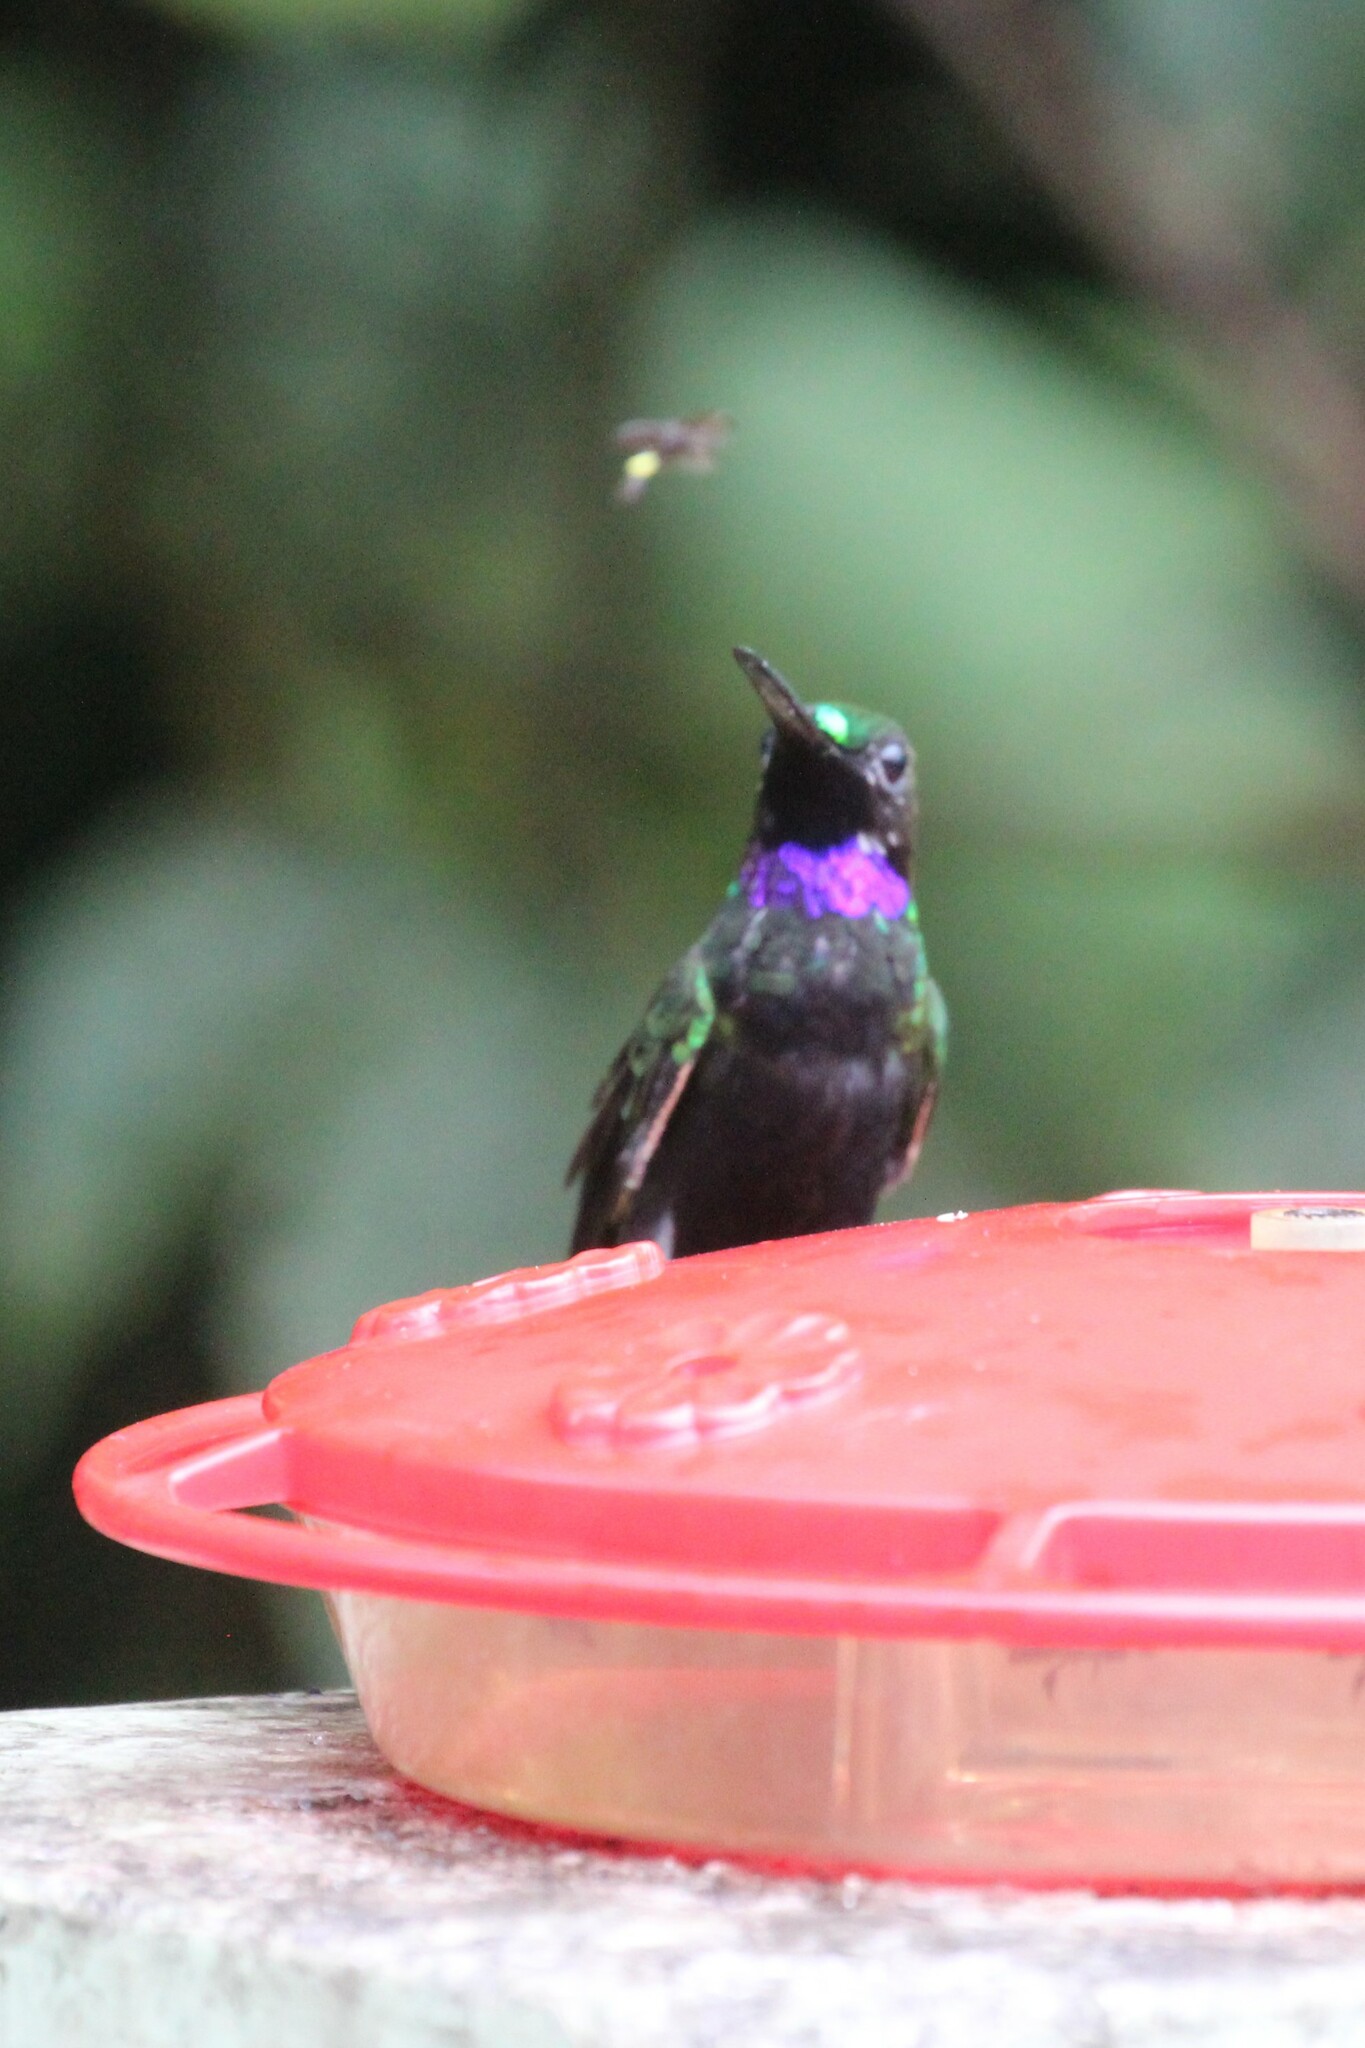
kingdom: Animalia
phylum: Chordata
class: Aves
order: Apodiformes
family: Trochilidae
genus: Heliodoxa
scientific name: Heliodoxa schreibersii
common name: Black-throated brilliant
